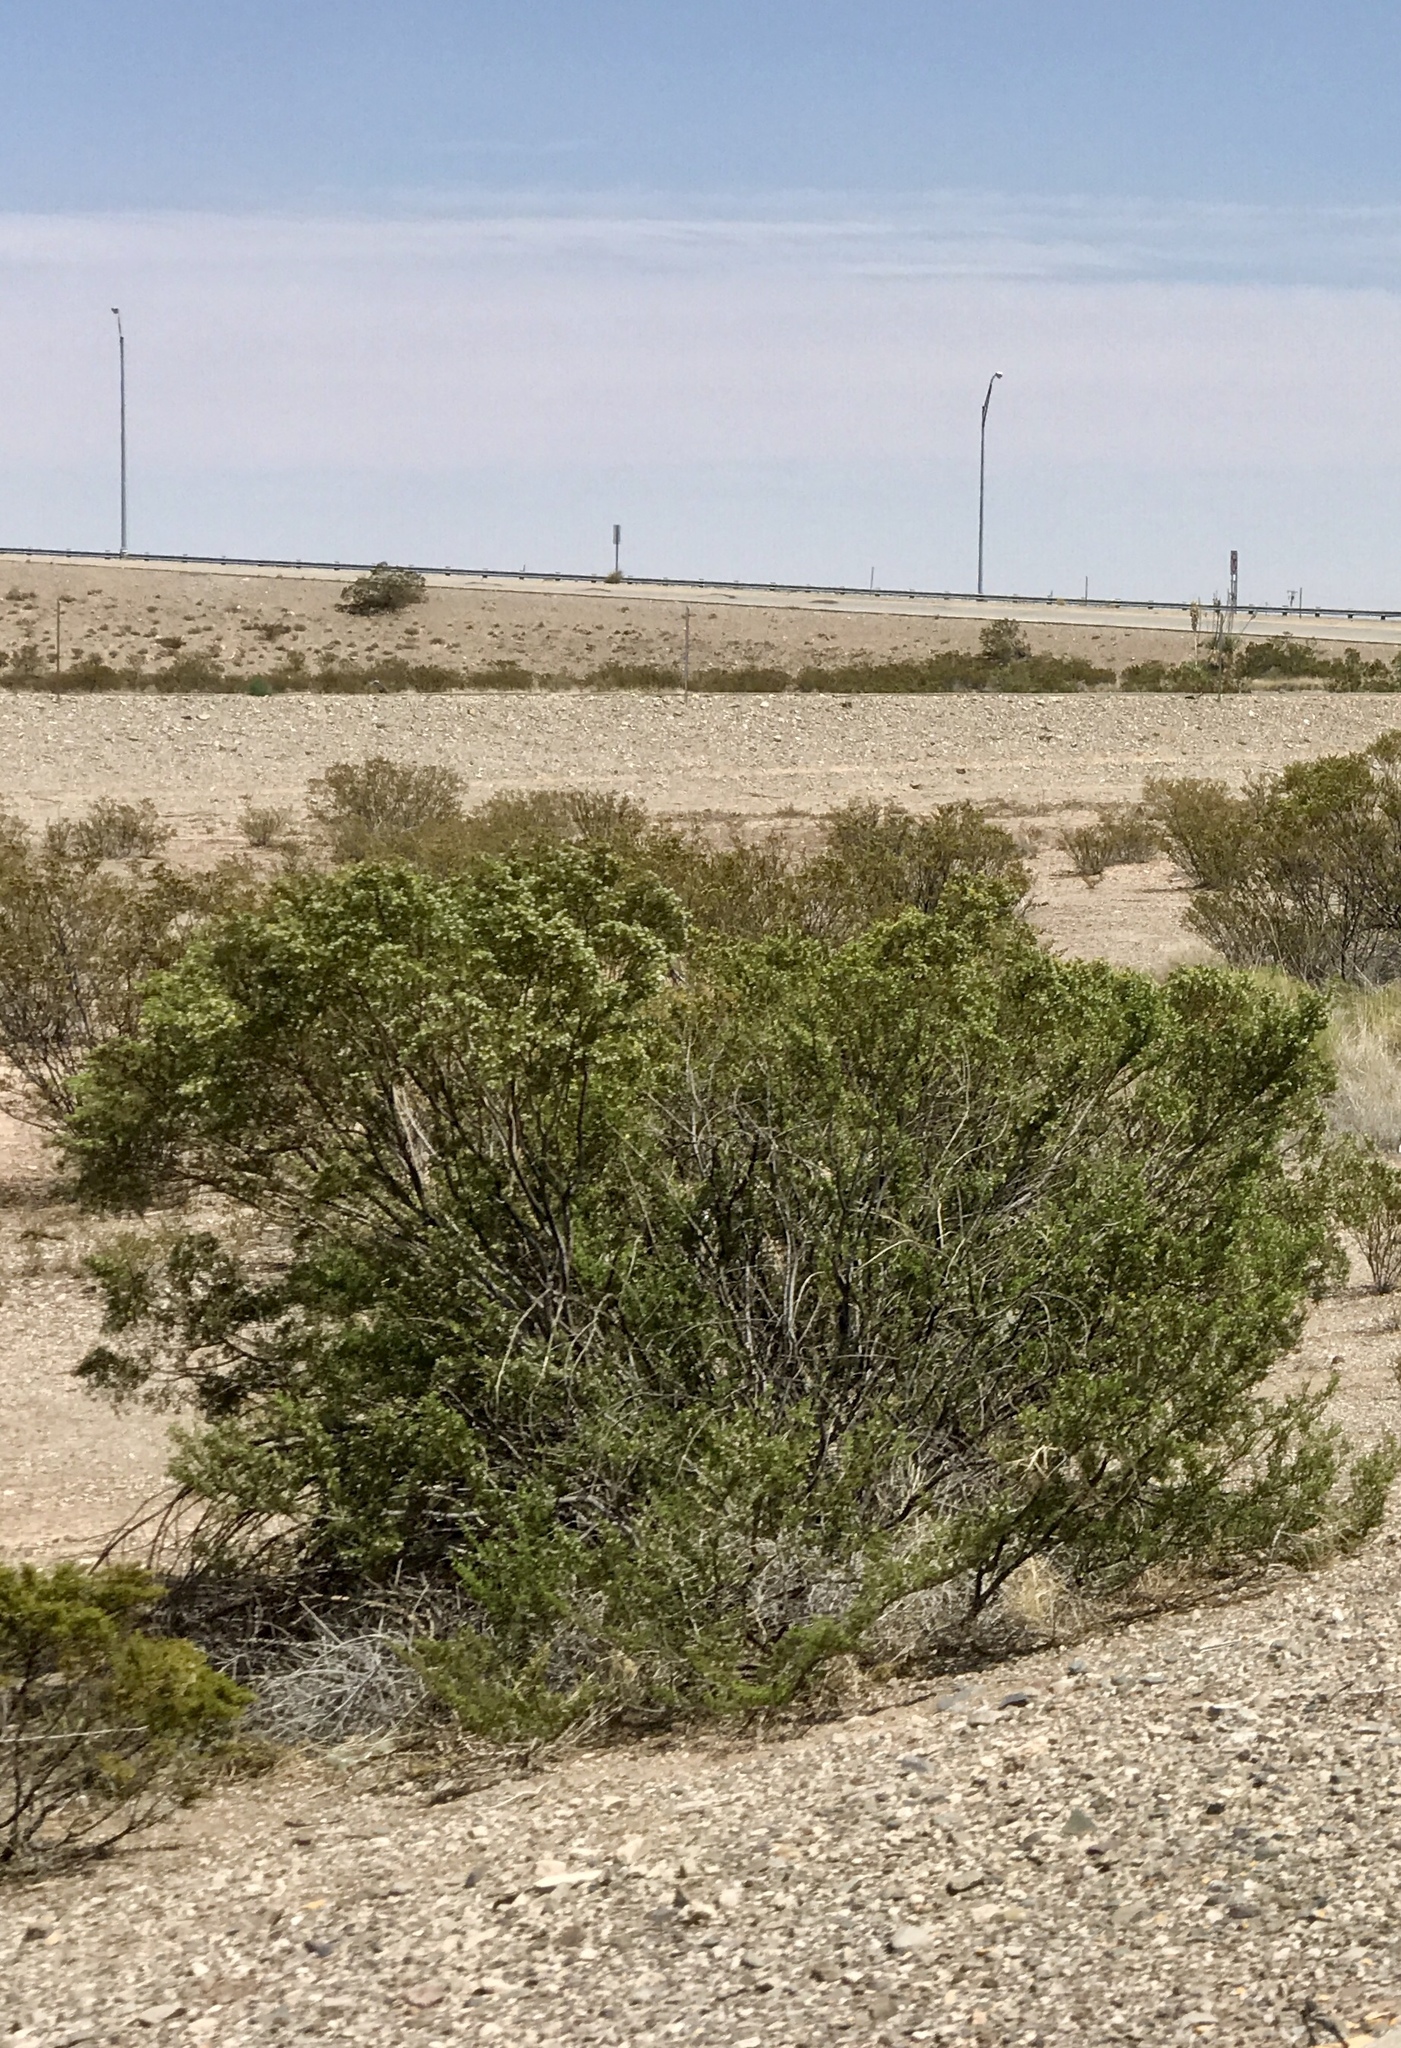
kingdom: Plantae
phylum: Tracheophyta
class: Magnoliopsida
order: Zygophyllales
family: Zygophyllaceae
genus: Larrea
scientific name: Larrea tridentata
